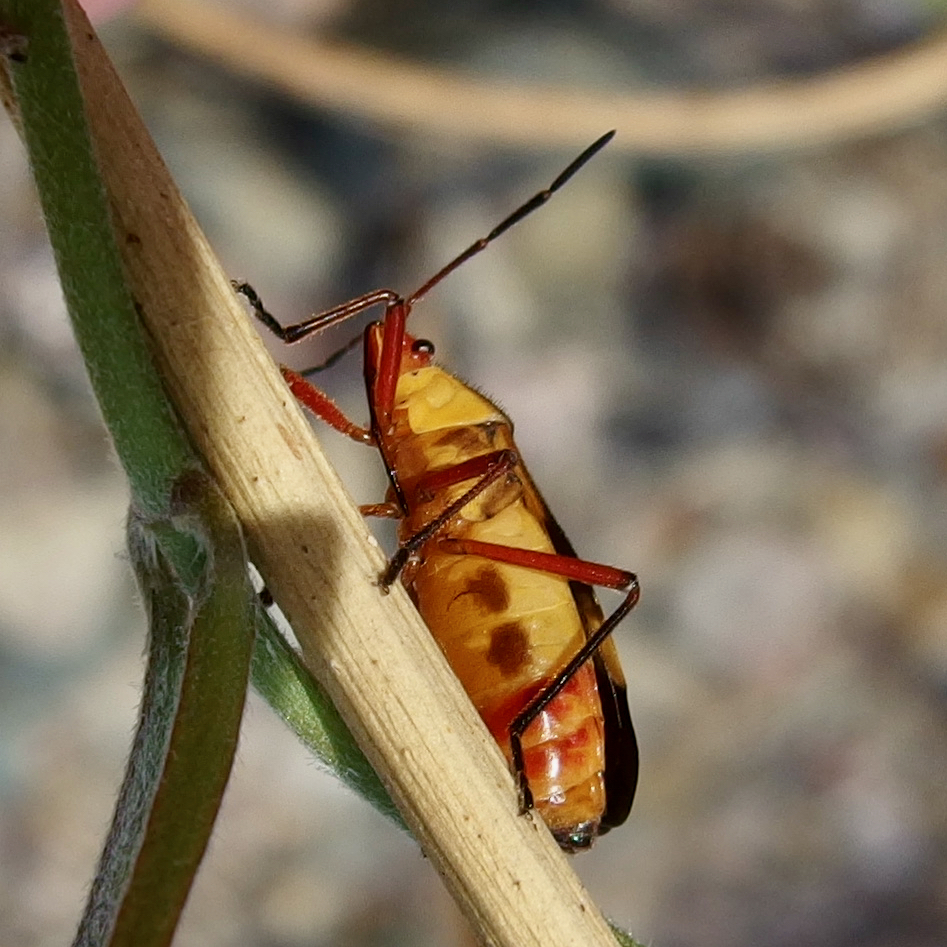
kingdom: Animalia
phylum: Arthropoda
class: Insecta
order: Hemiptera
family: Lygaeidae
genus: Oncopeltus
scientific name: Oncopeltus guttaloides
